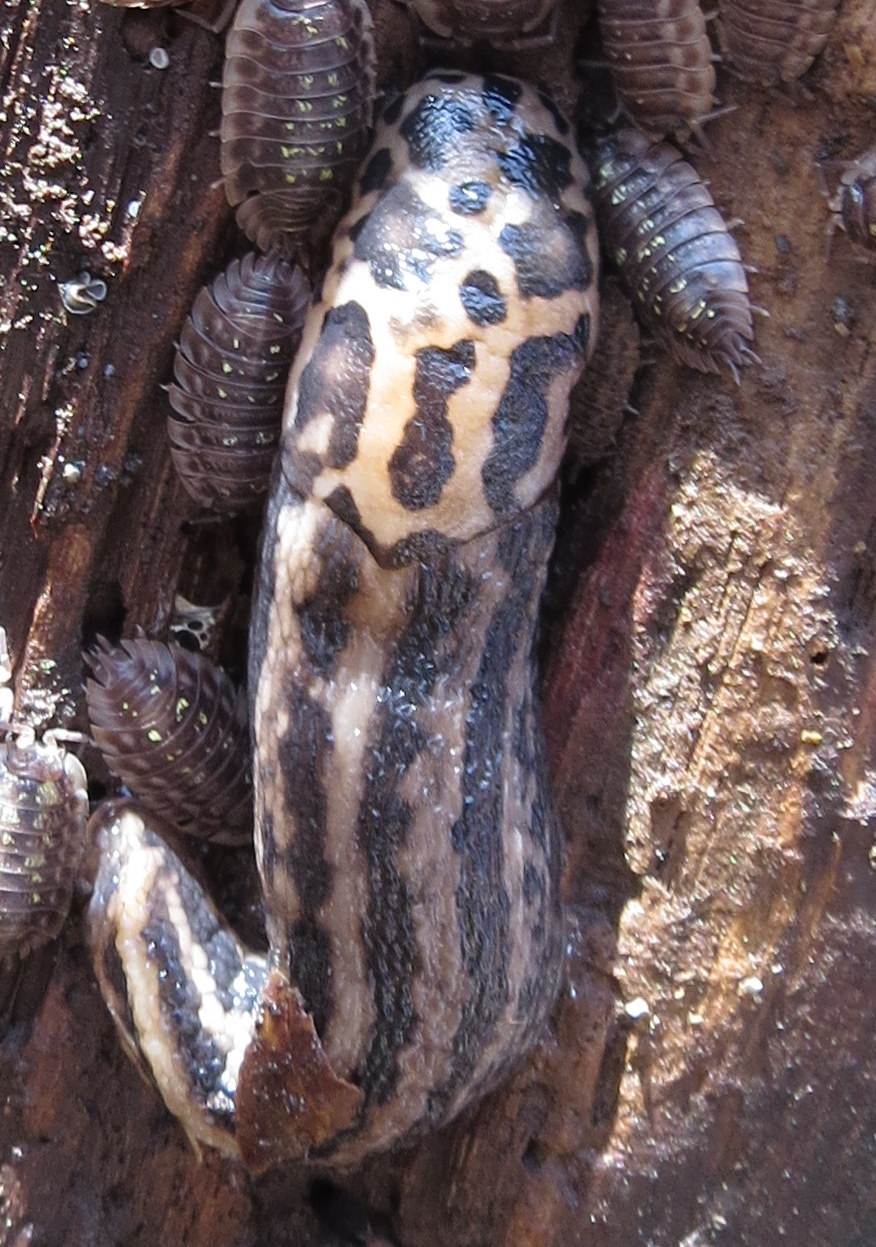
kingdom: Animalia
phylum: Mollusca
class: Gastropoda
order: Stylommatophora
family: Limacidae
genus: Limax
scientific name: Limax maximus
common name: Great grey slug
